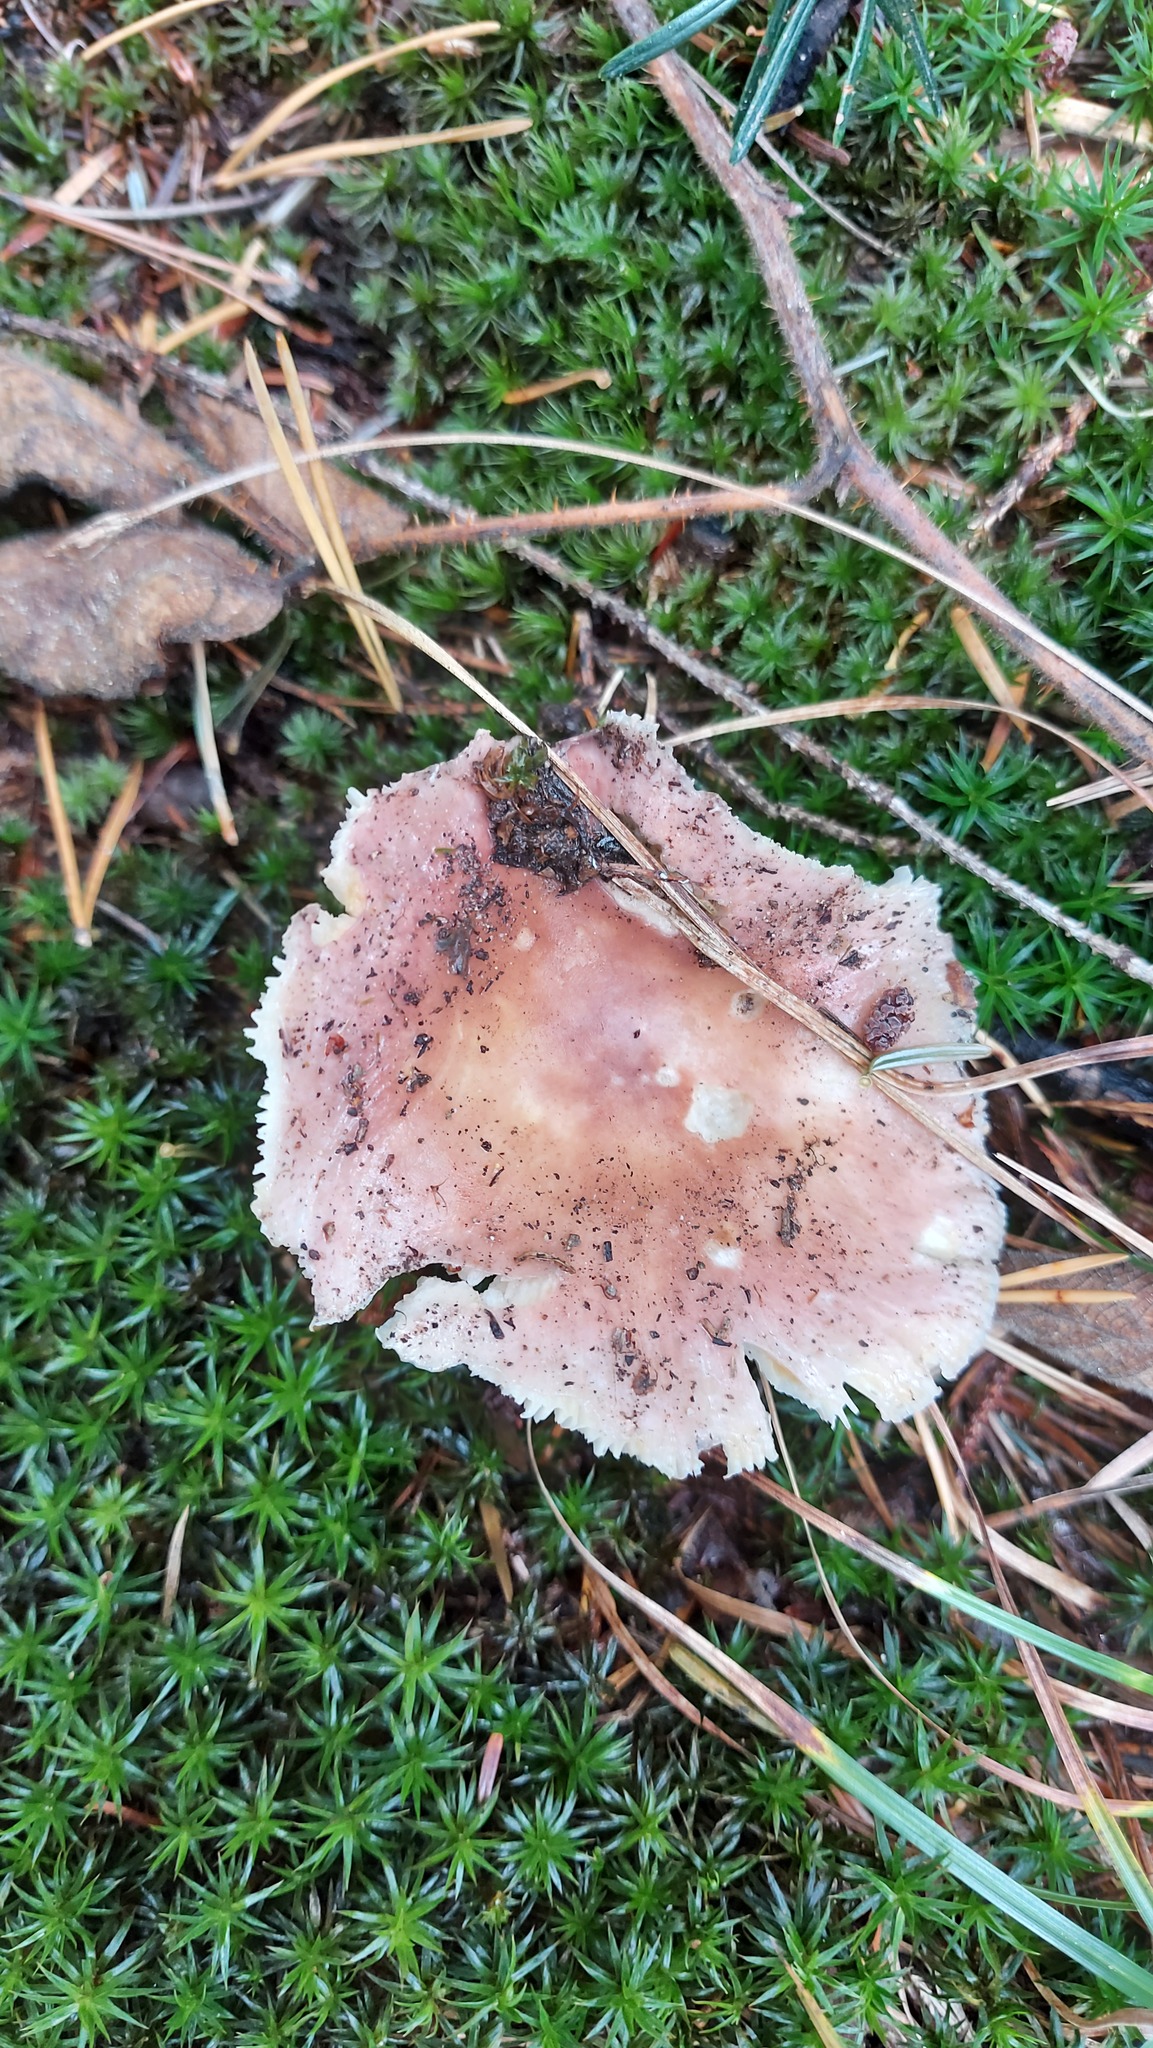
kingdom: Fungi
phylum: Basidiomycota
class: Agaricomycetes
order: Russulales
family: Russulaceae
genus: Russula
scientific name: Russula vesca
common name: Bare-toothed russula
